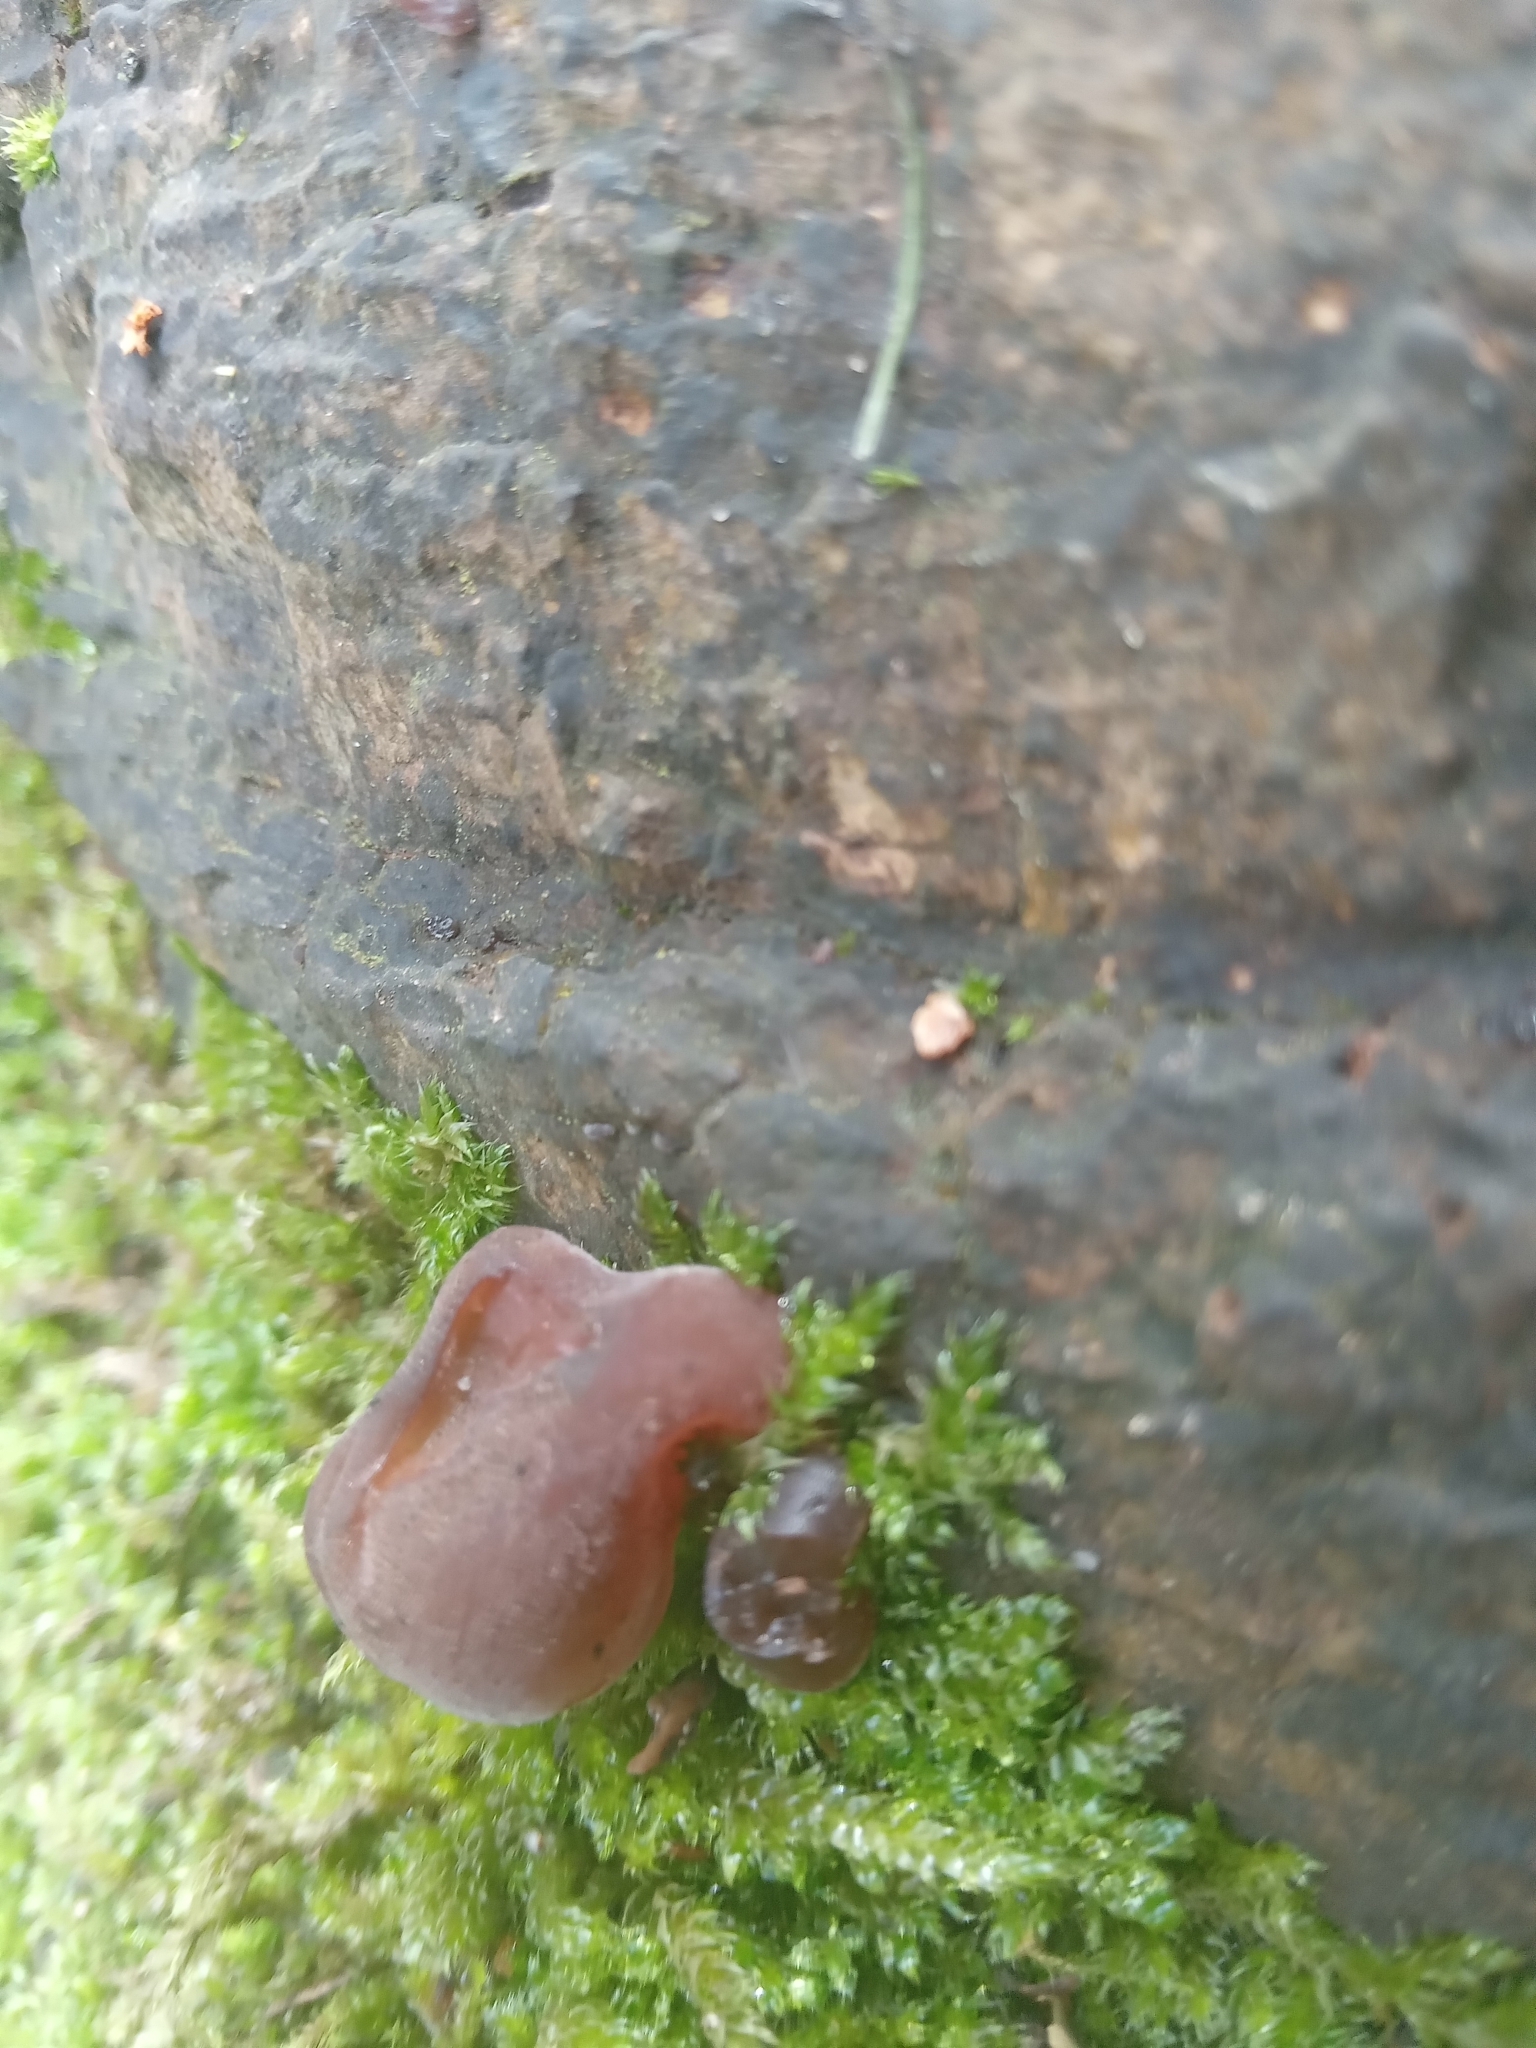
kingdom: Fungi
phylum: Basidiomycota
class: Agaricomycetes
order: Auriculariales
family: Auriculariaceae
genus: Auricularia
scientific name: Auricularia auricula-judae
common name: Jelly ear
